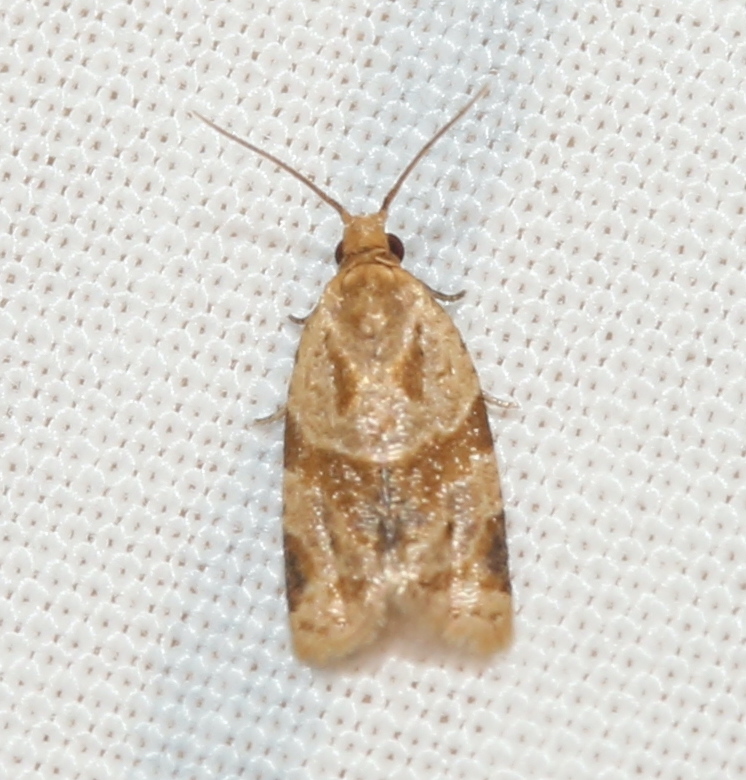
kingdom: Animalia
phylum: Arthropoda
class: Insecta
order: Lepidoptera
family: Tortricidae
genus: Clepsis
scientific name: Clepsis peritana
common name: Garden tortrix
